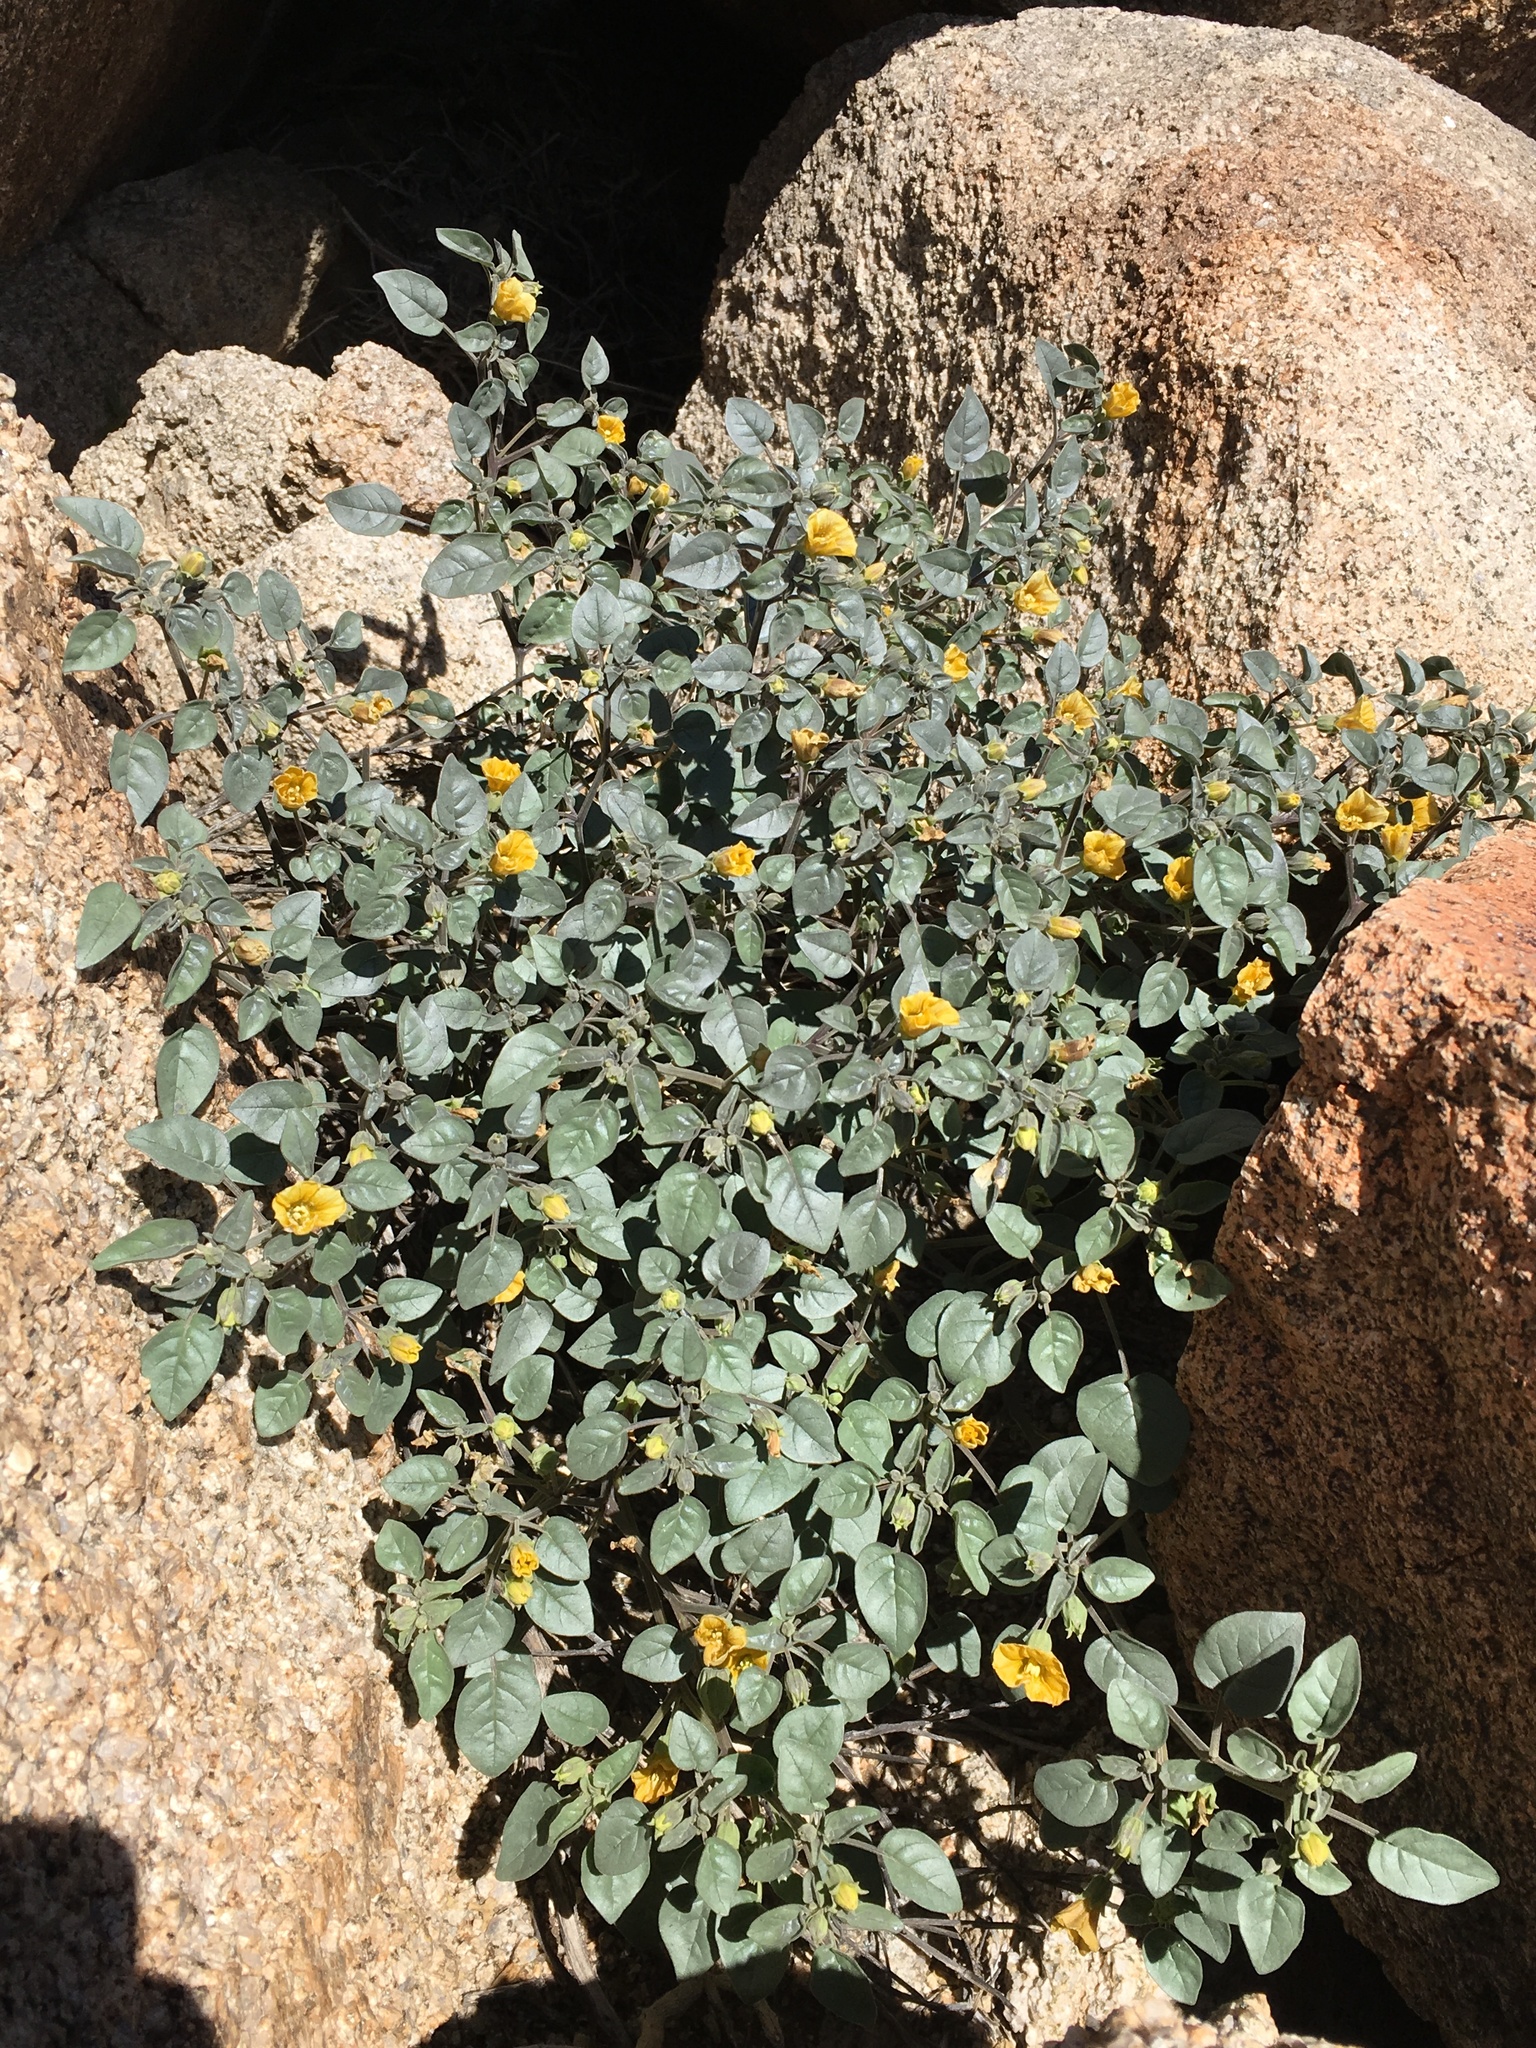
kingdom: Plantae
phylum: Tracheophyta
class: Magnoliopsida
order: Solanales
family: Solanaceae
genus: Physalis
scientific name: Physalis crassifolia
